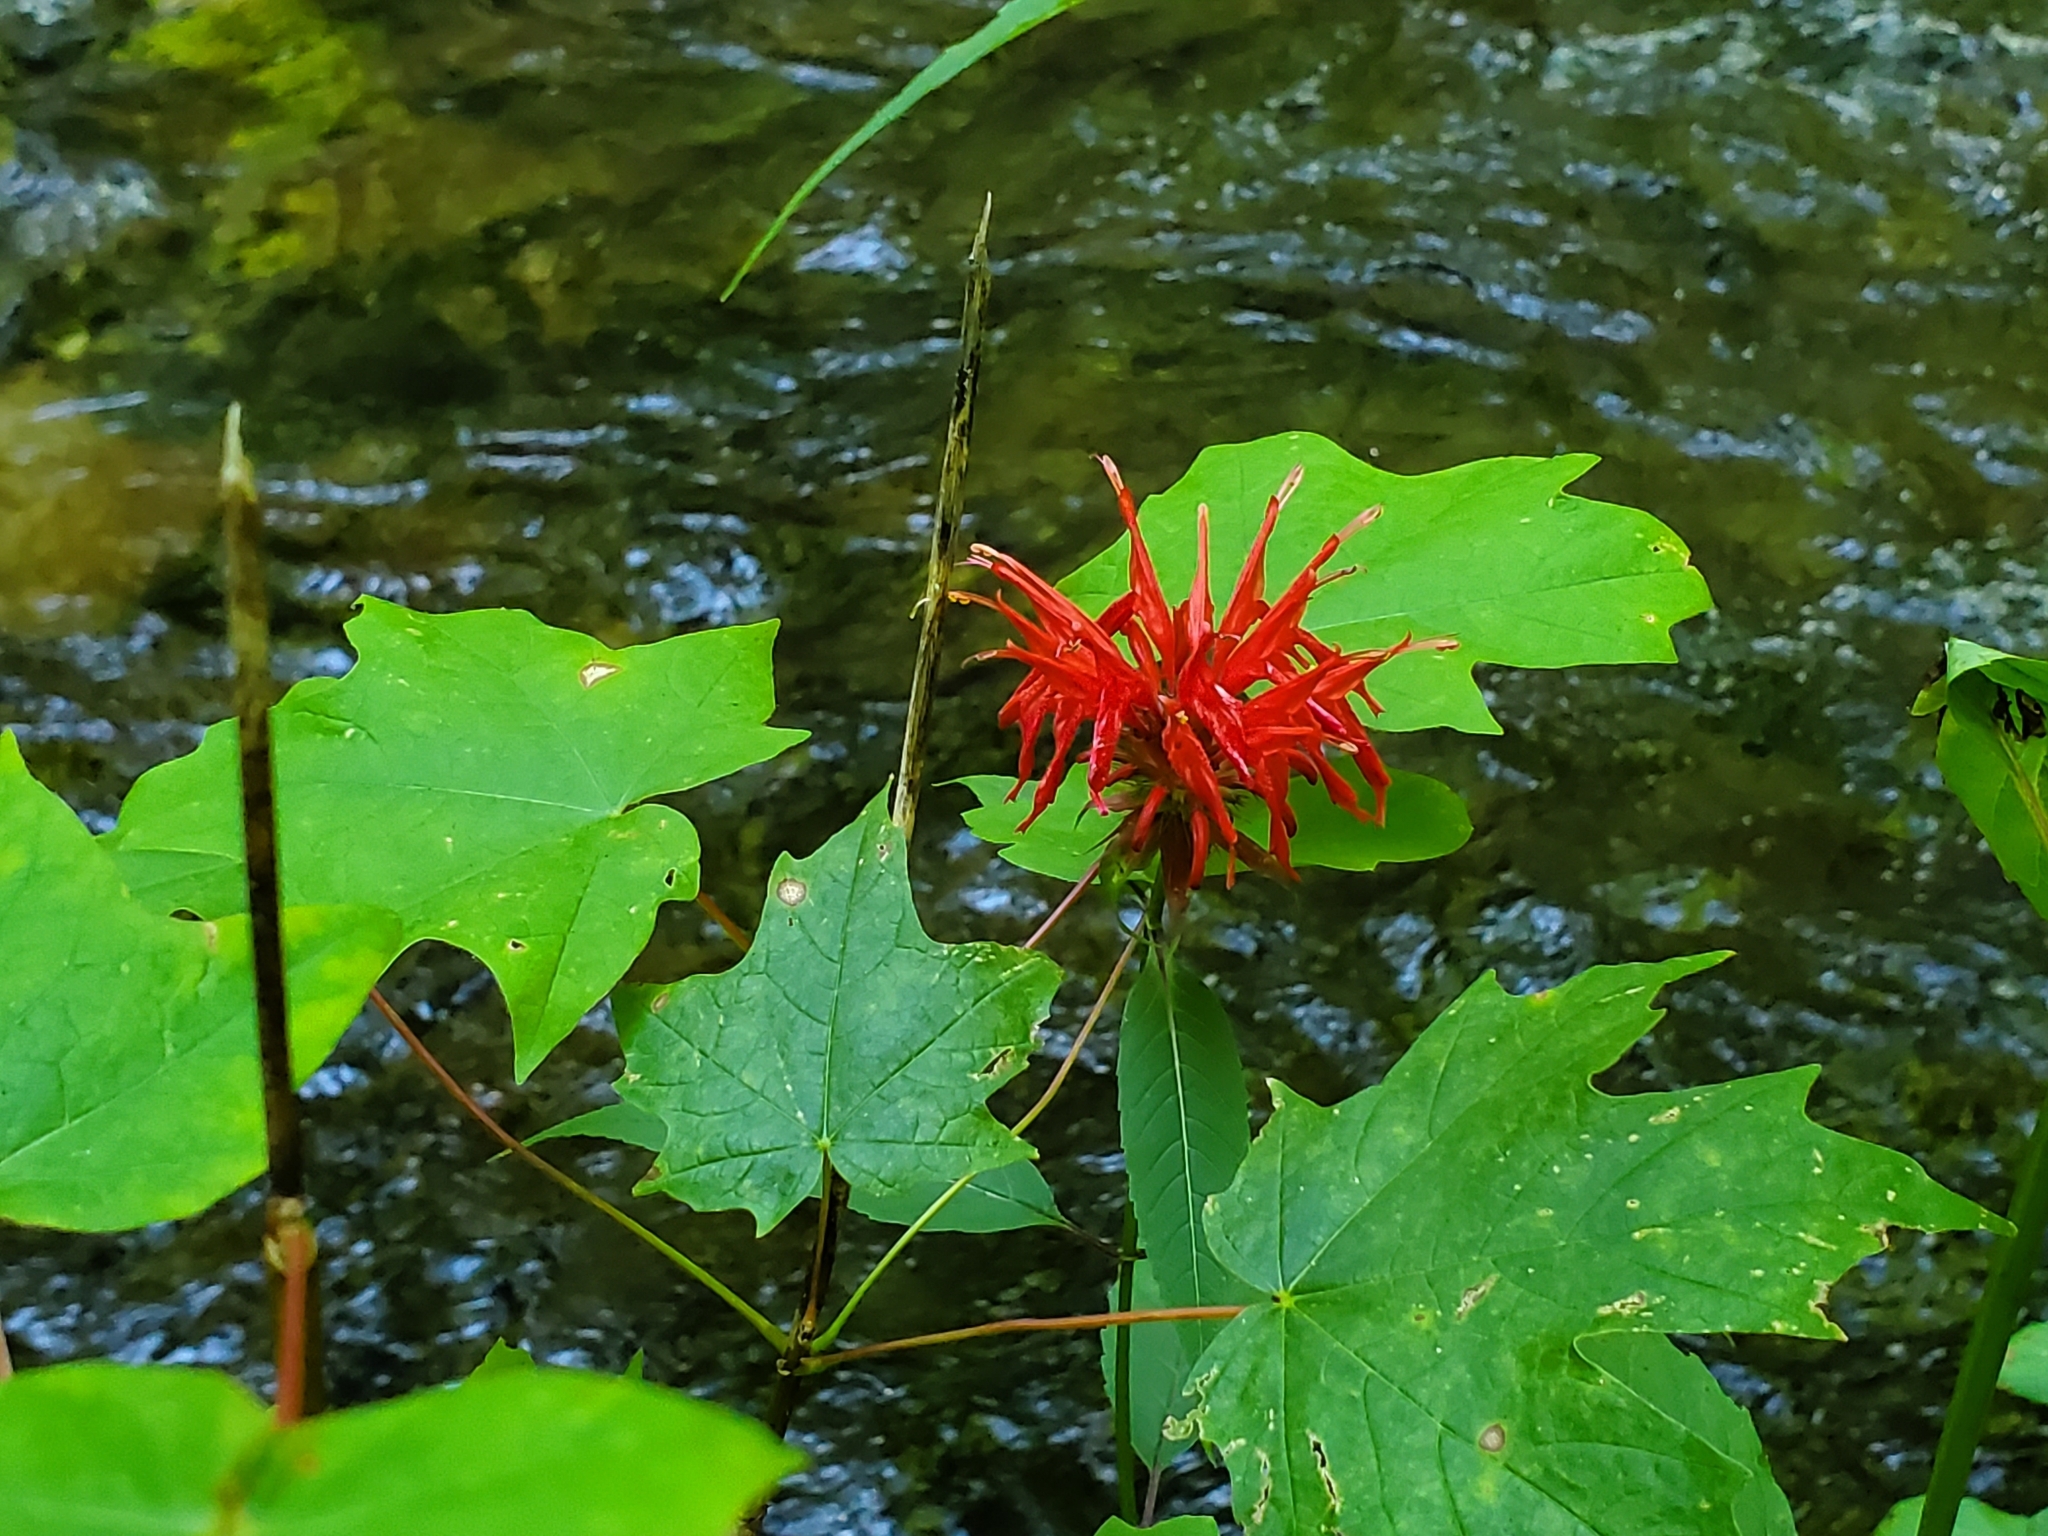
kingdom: Plantae
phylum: Tracheophyta
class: Magnoliopsida
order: Lamiales
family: Lamiaceae
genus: Monarda
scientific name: Monarda didyma
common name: Beebalm
